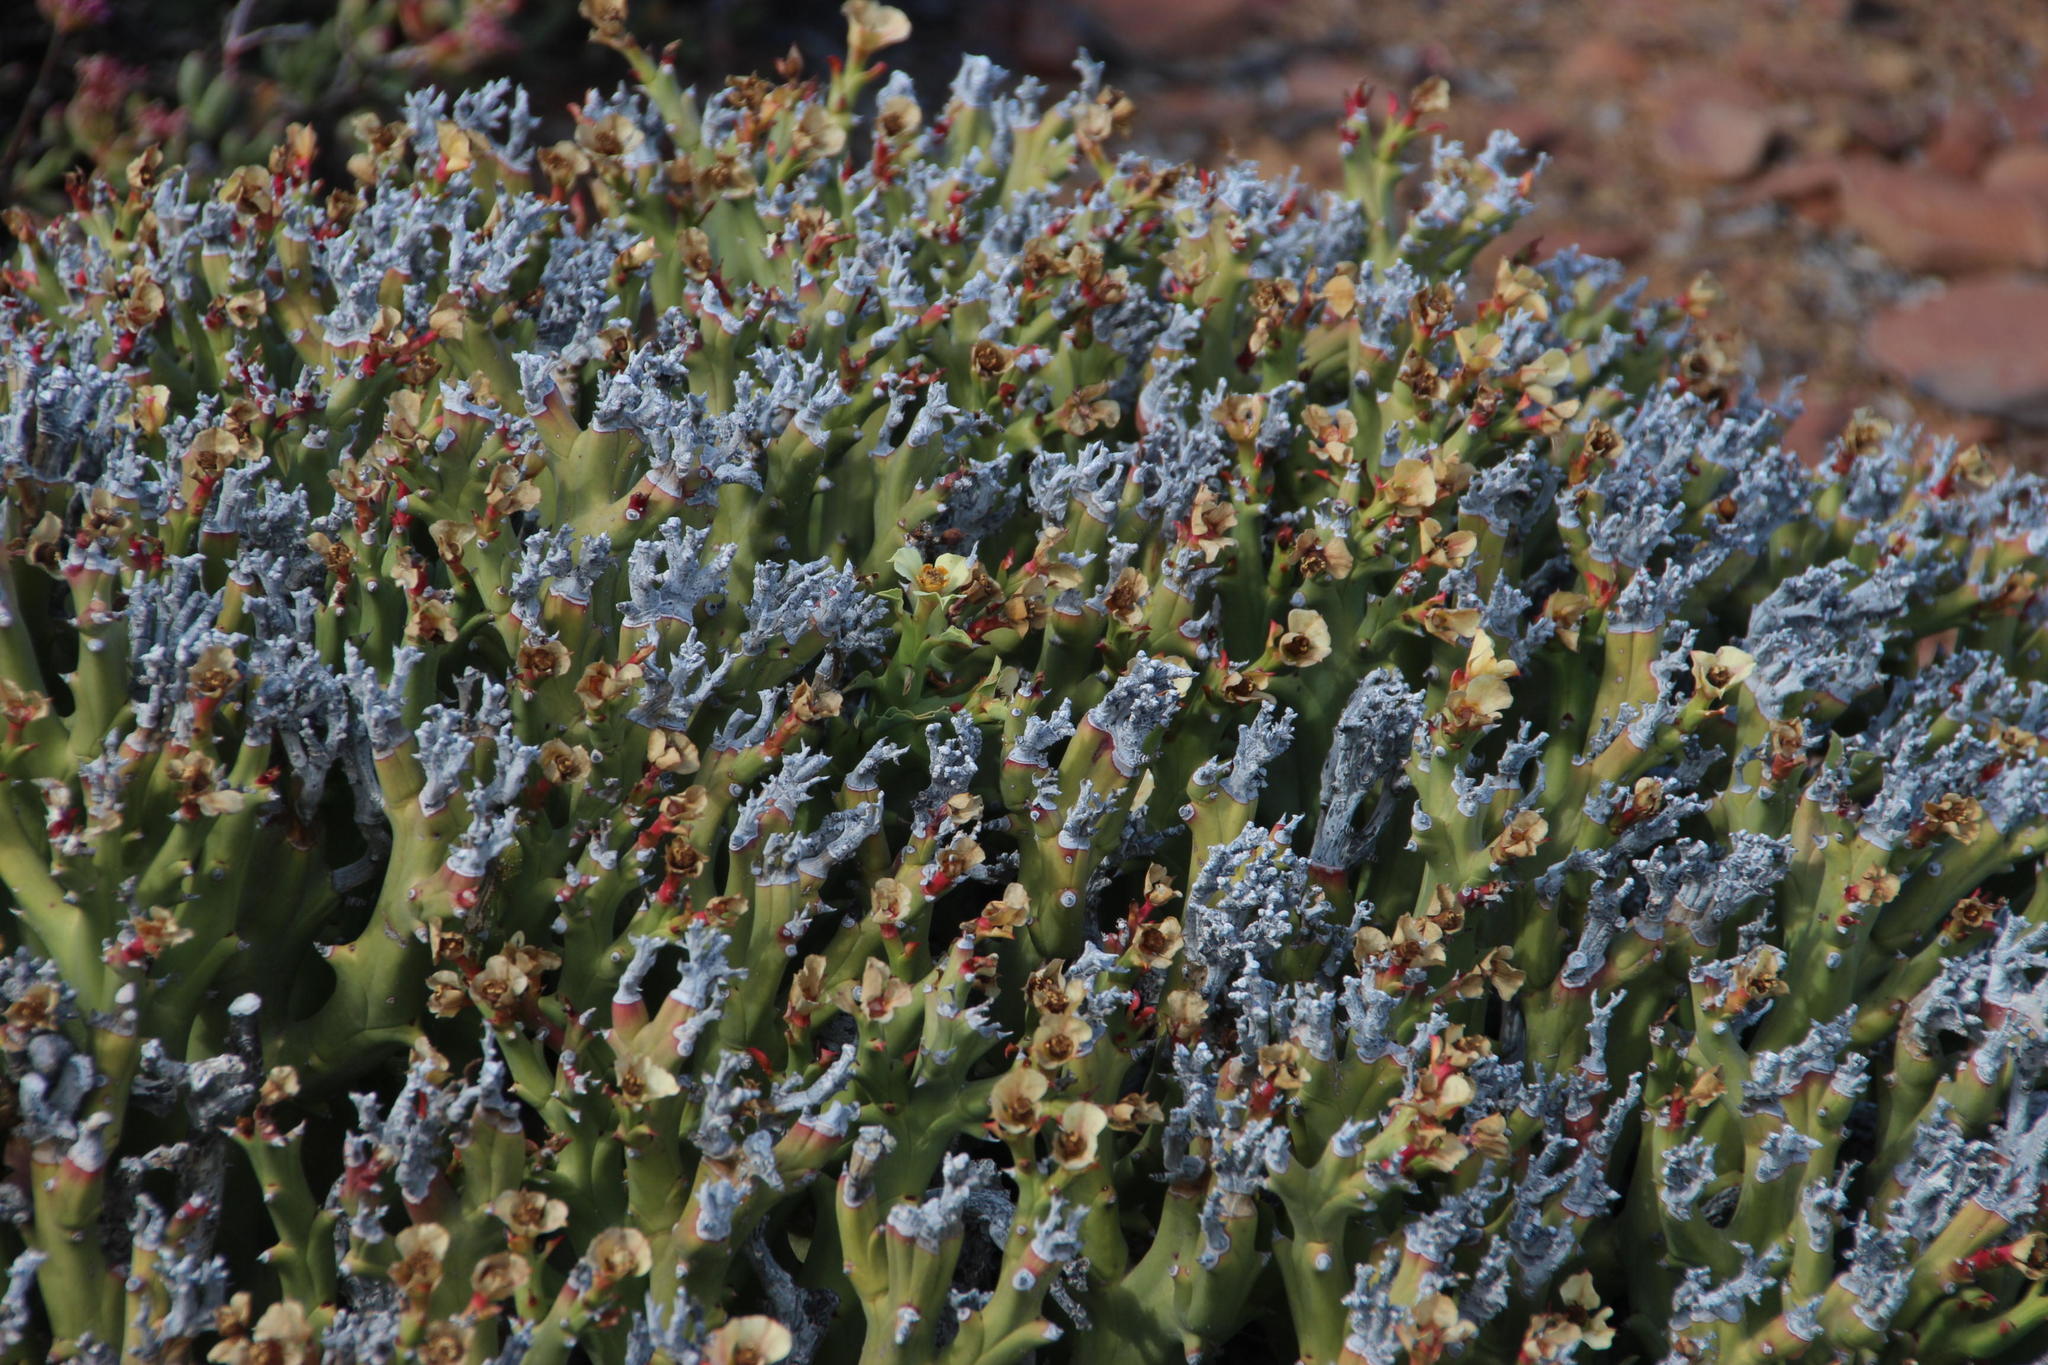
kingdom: Plantae
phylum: Tracheophyta
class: Magnoliopsida
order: Malpighiales
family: Euphorbiaceae
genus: Euphorbia
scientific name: Euphorbia hamata
